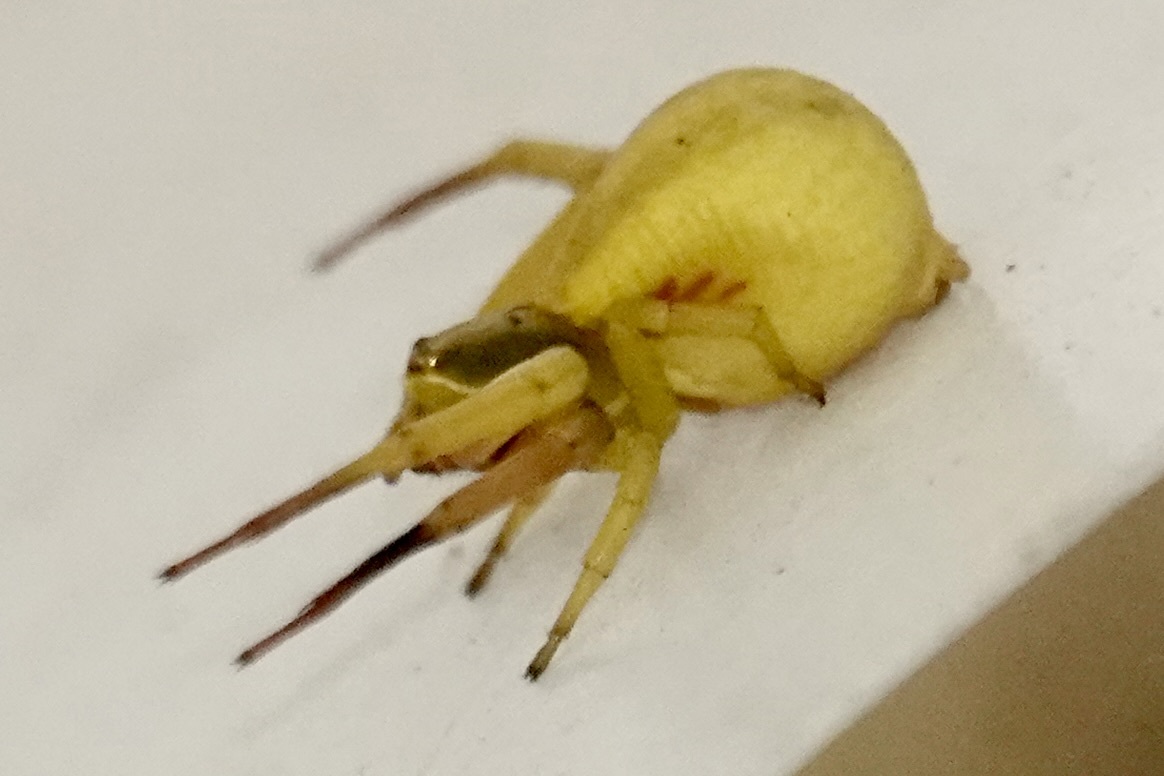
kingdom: Animalia
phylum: Arthropoda
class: Arachnida
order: Araneae
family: Thomisidae
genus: Misumenoides
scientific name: Misumenoides formosipes
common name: White-banded crab spider
